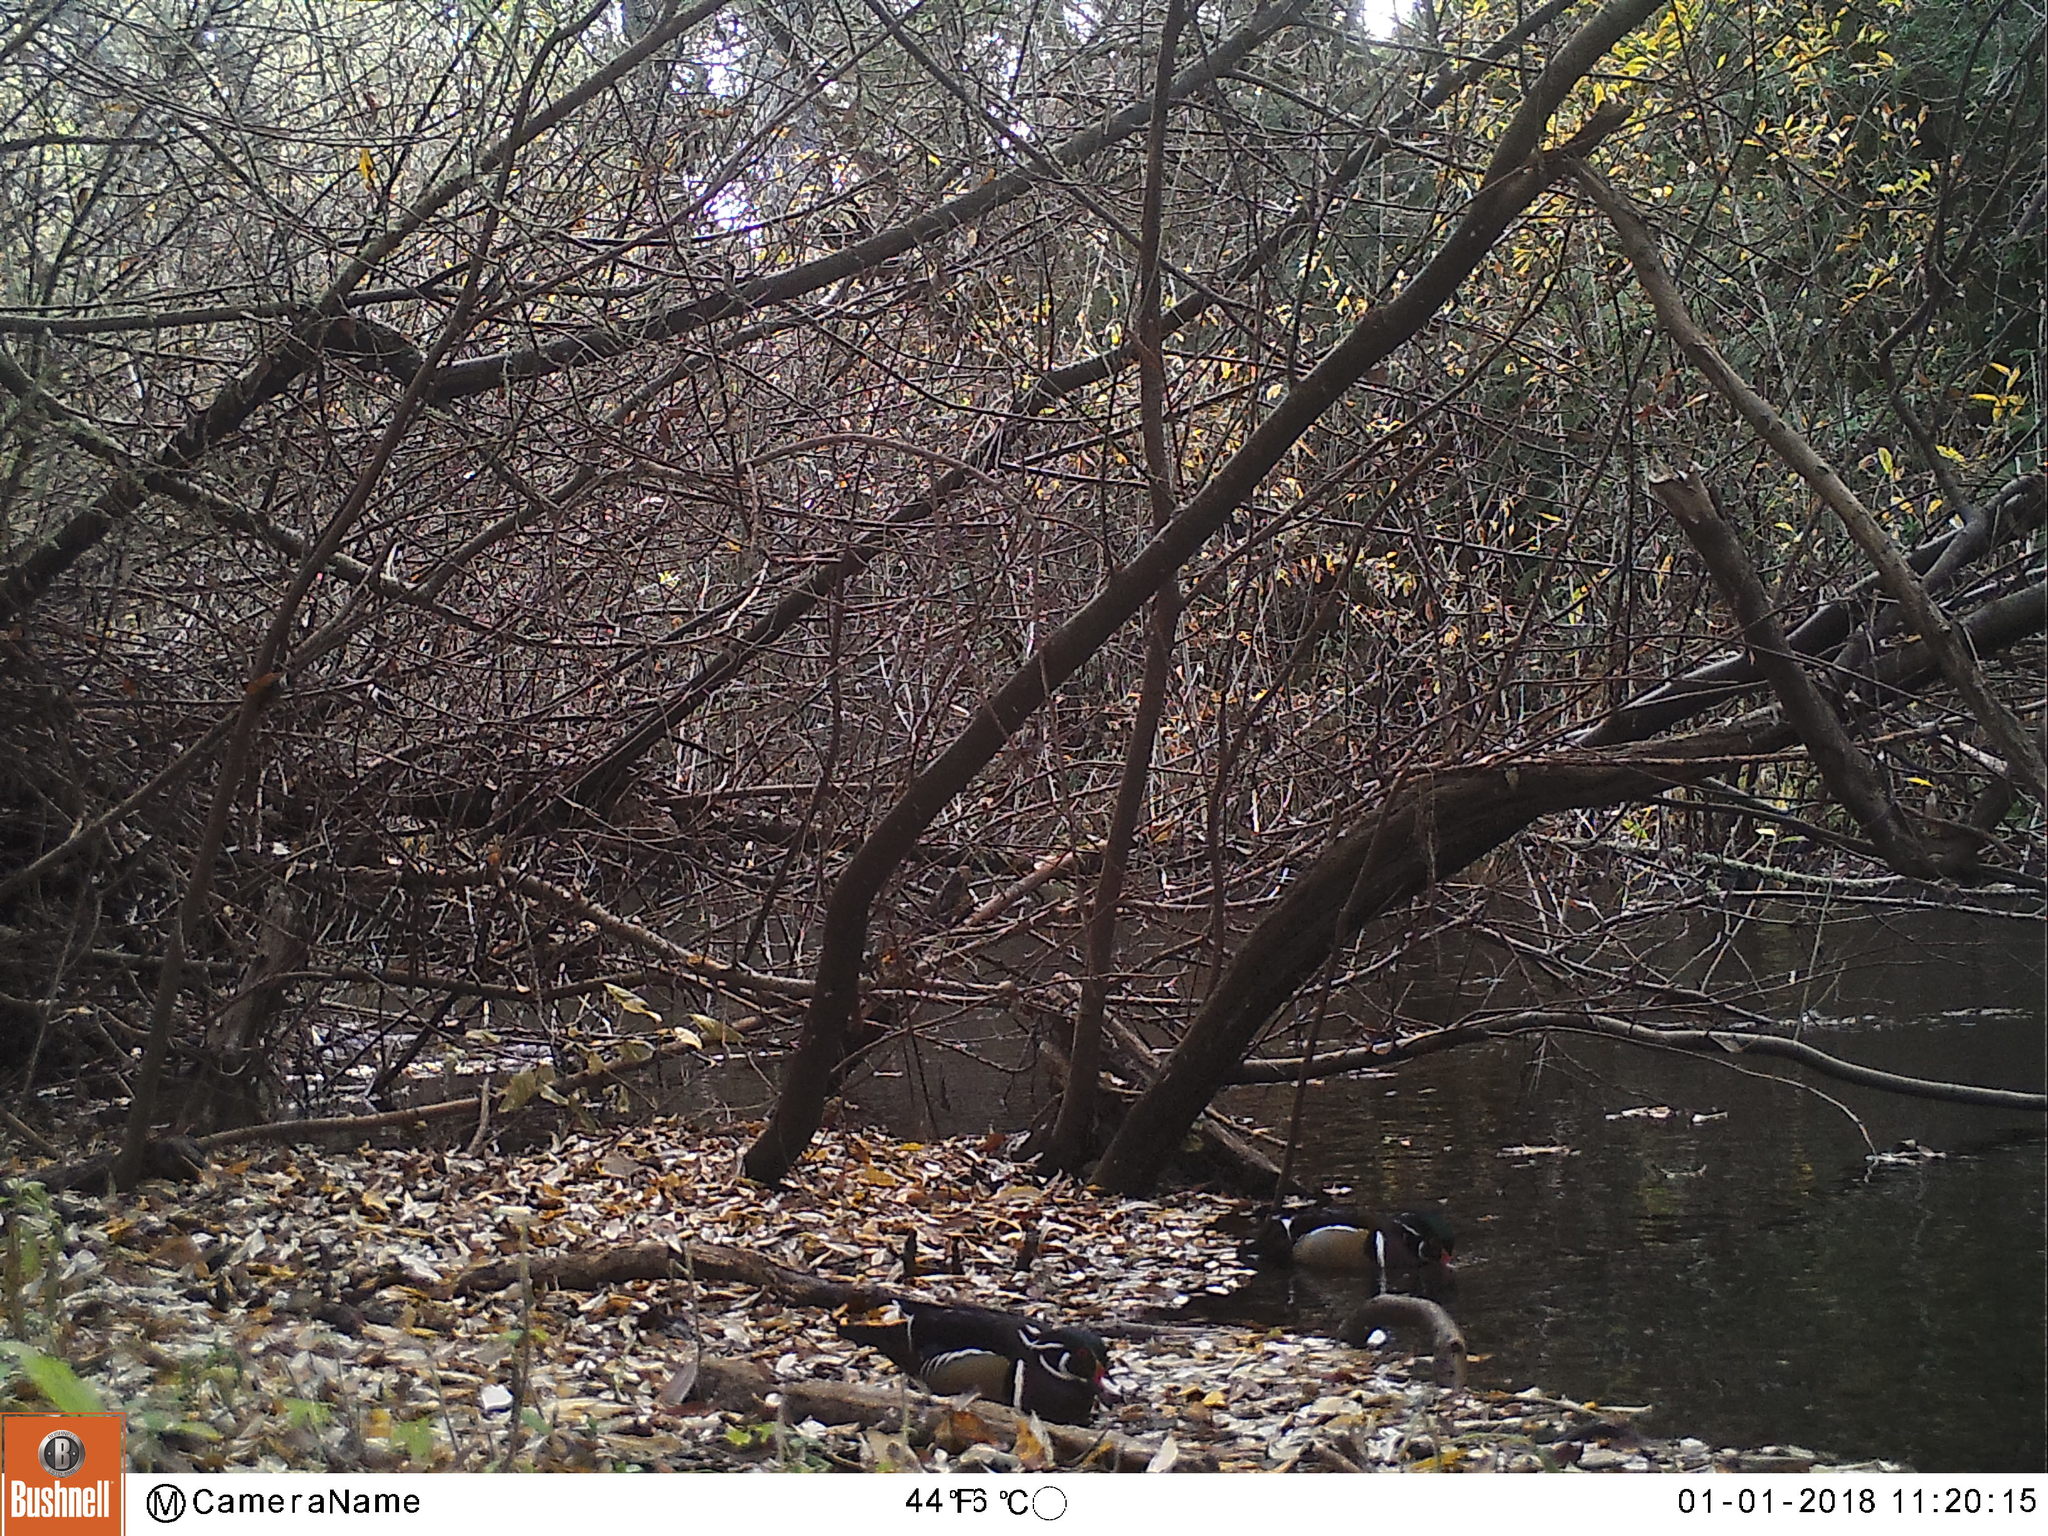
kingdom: Animalia
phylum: Chordata
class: Aves
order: Anseriformes
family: Anatidae
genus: Aix
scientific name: Aix sponsa
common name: Wood duck
